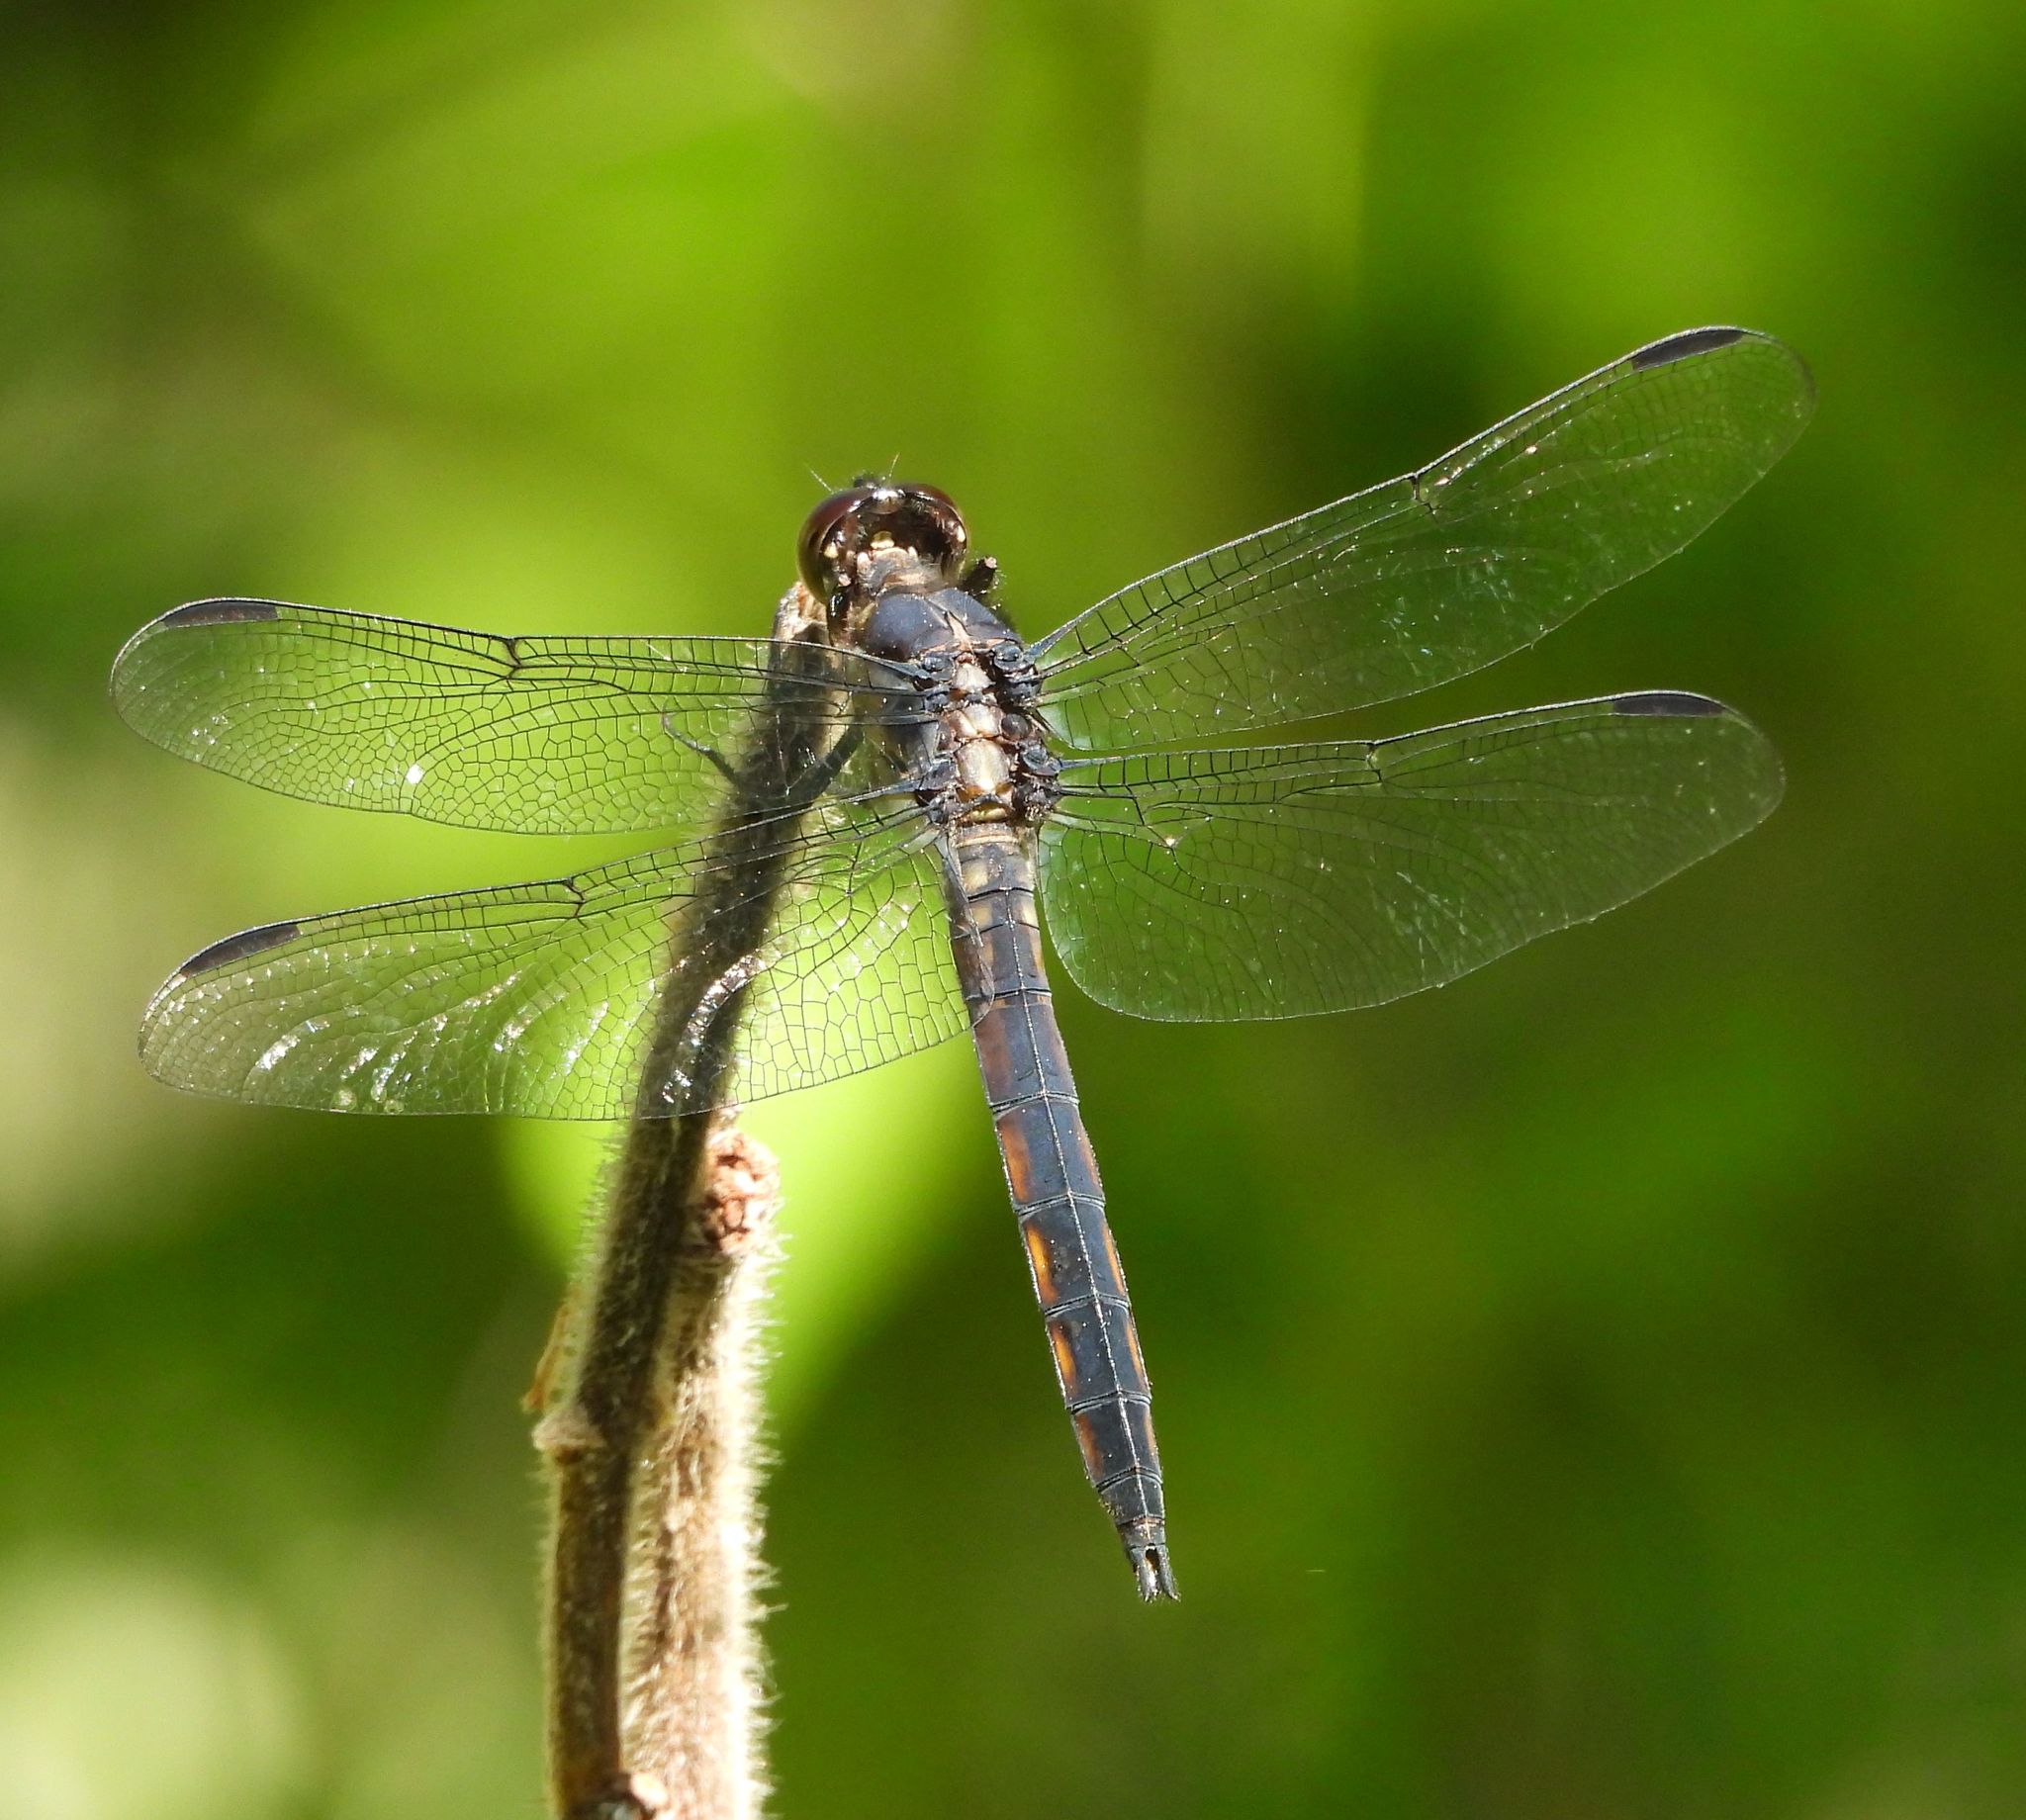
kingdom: Animalia
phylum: Arthropoda
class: Insecta
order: Odonata
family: Libellulidae
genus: Libellula
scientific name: Libellula incesta
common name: Slaty skimmer
